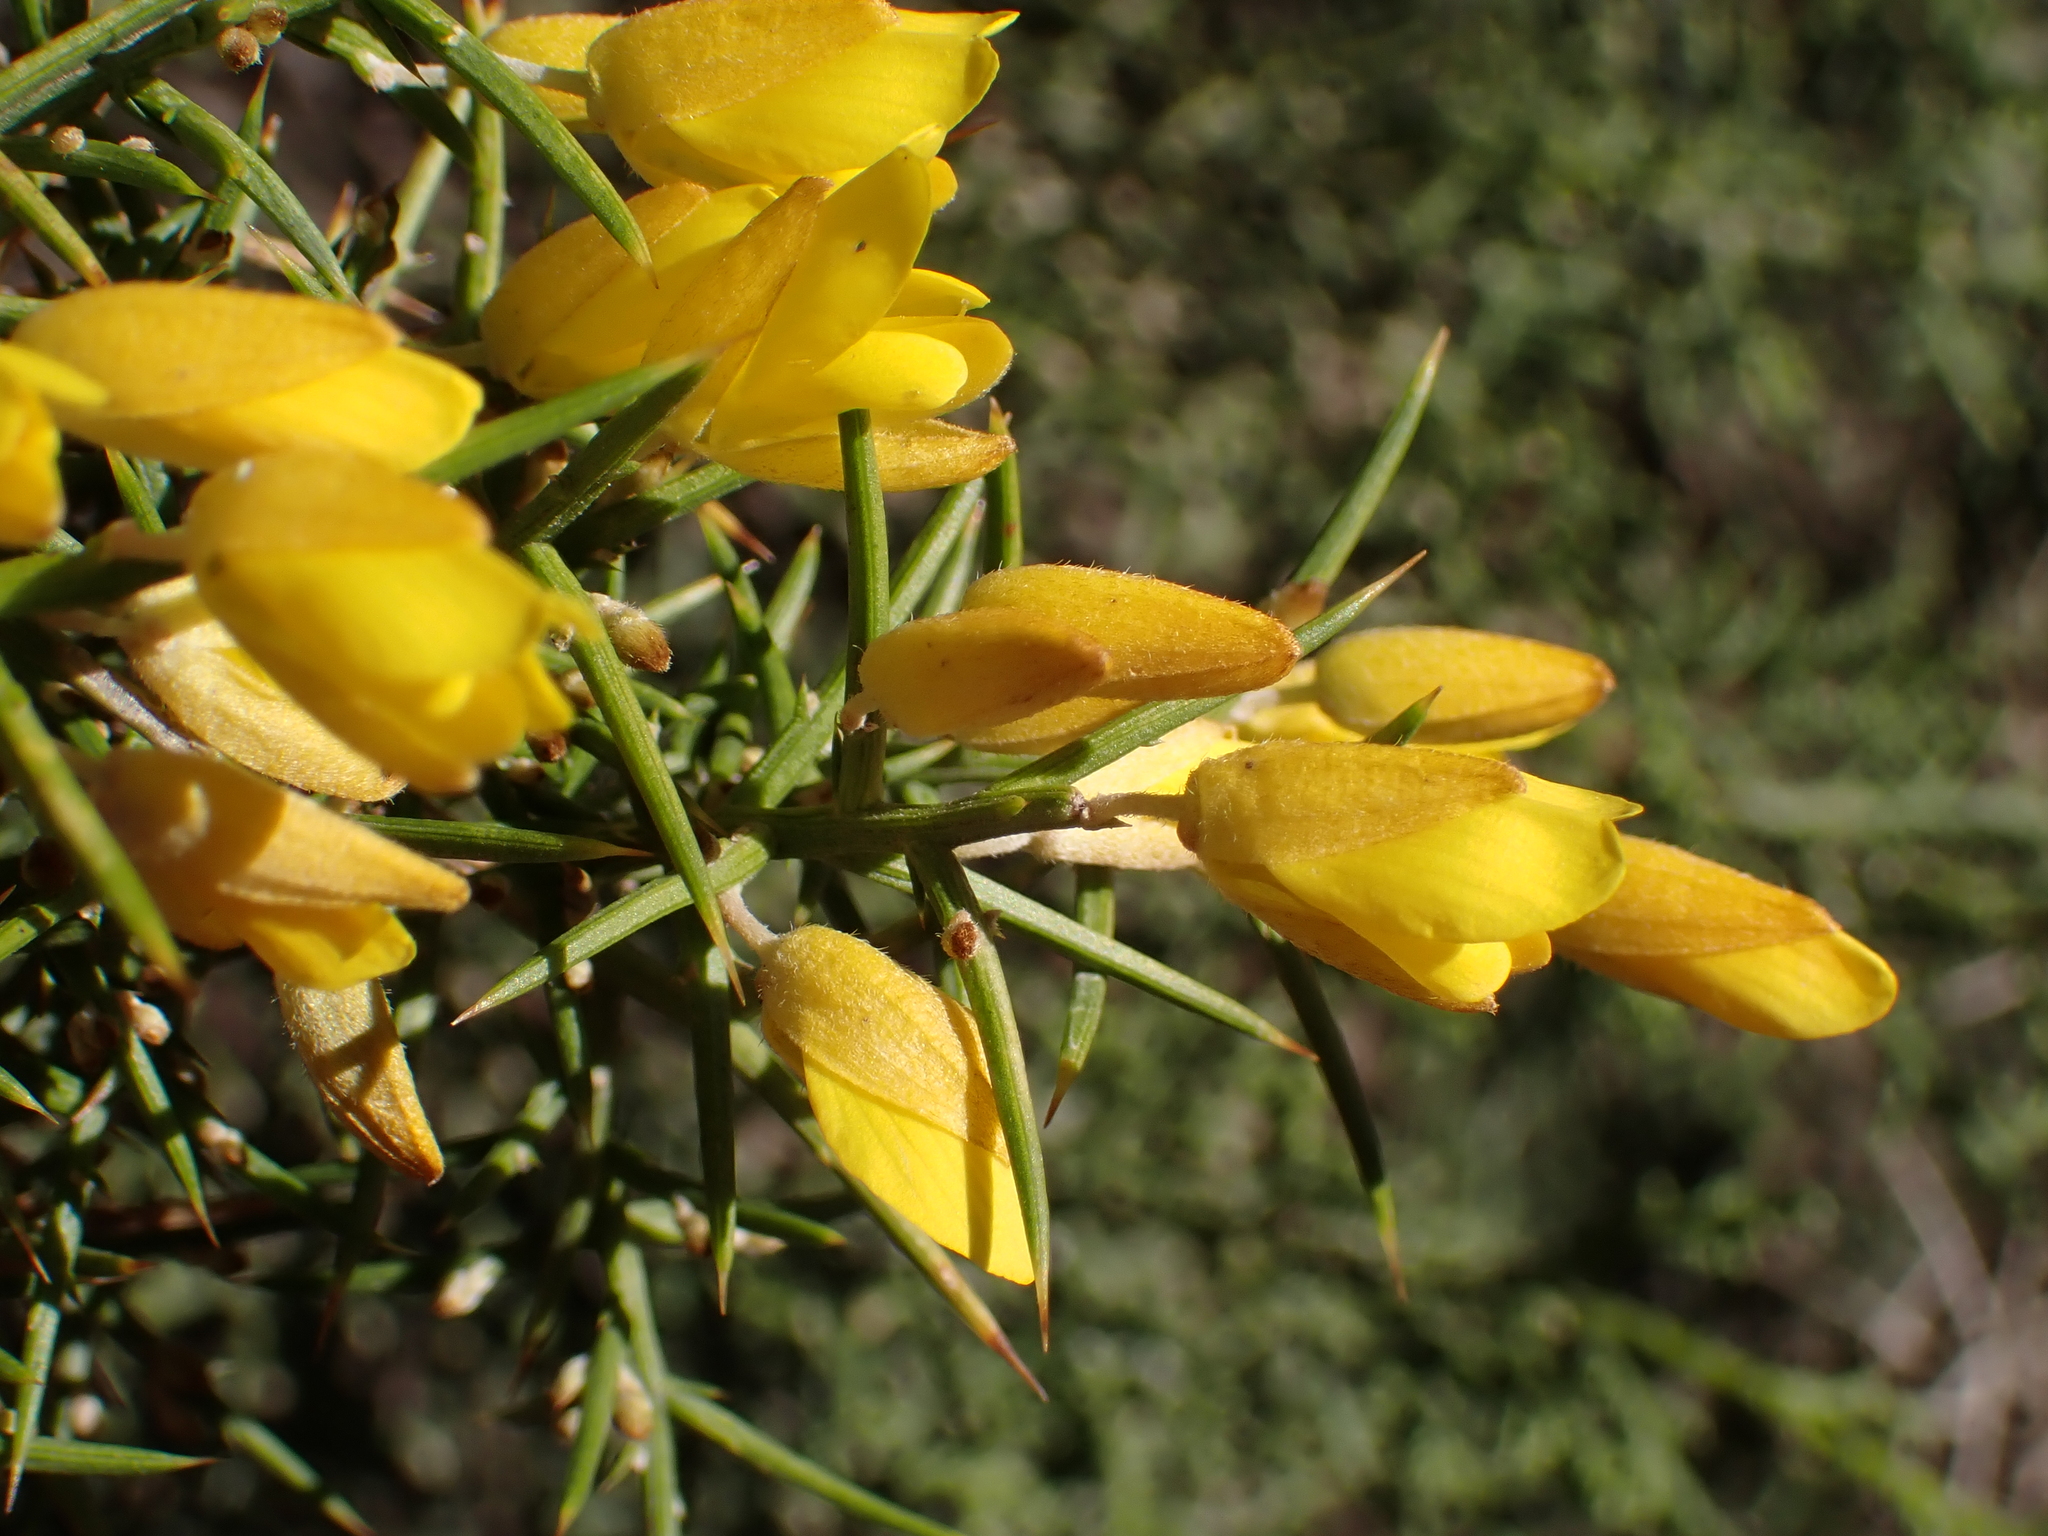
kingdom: Plantae
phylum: Tracheophyta
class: Magnoliopsida
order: Fabales
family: Fabaceae
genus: Ulex
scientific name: Ulex parviflorus
